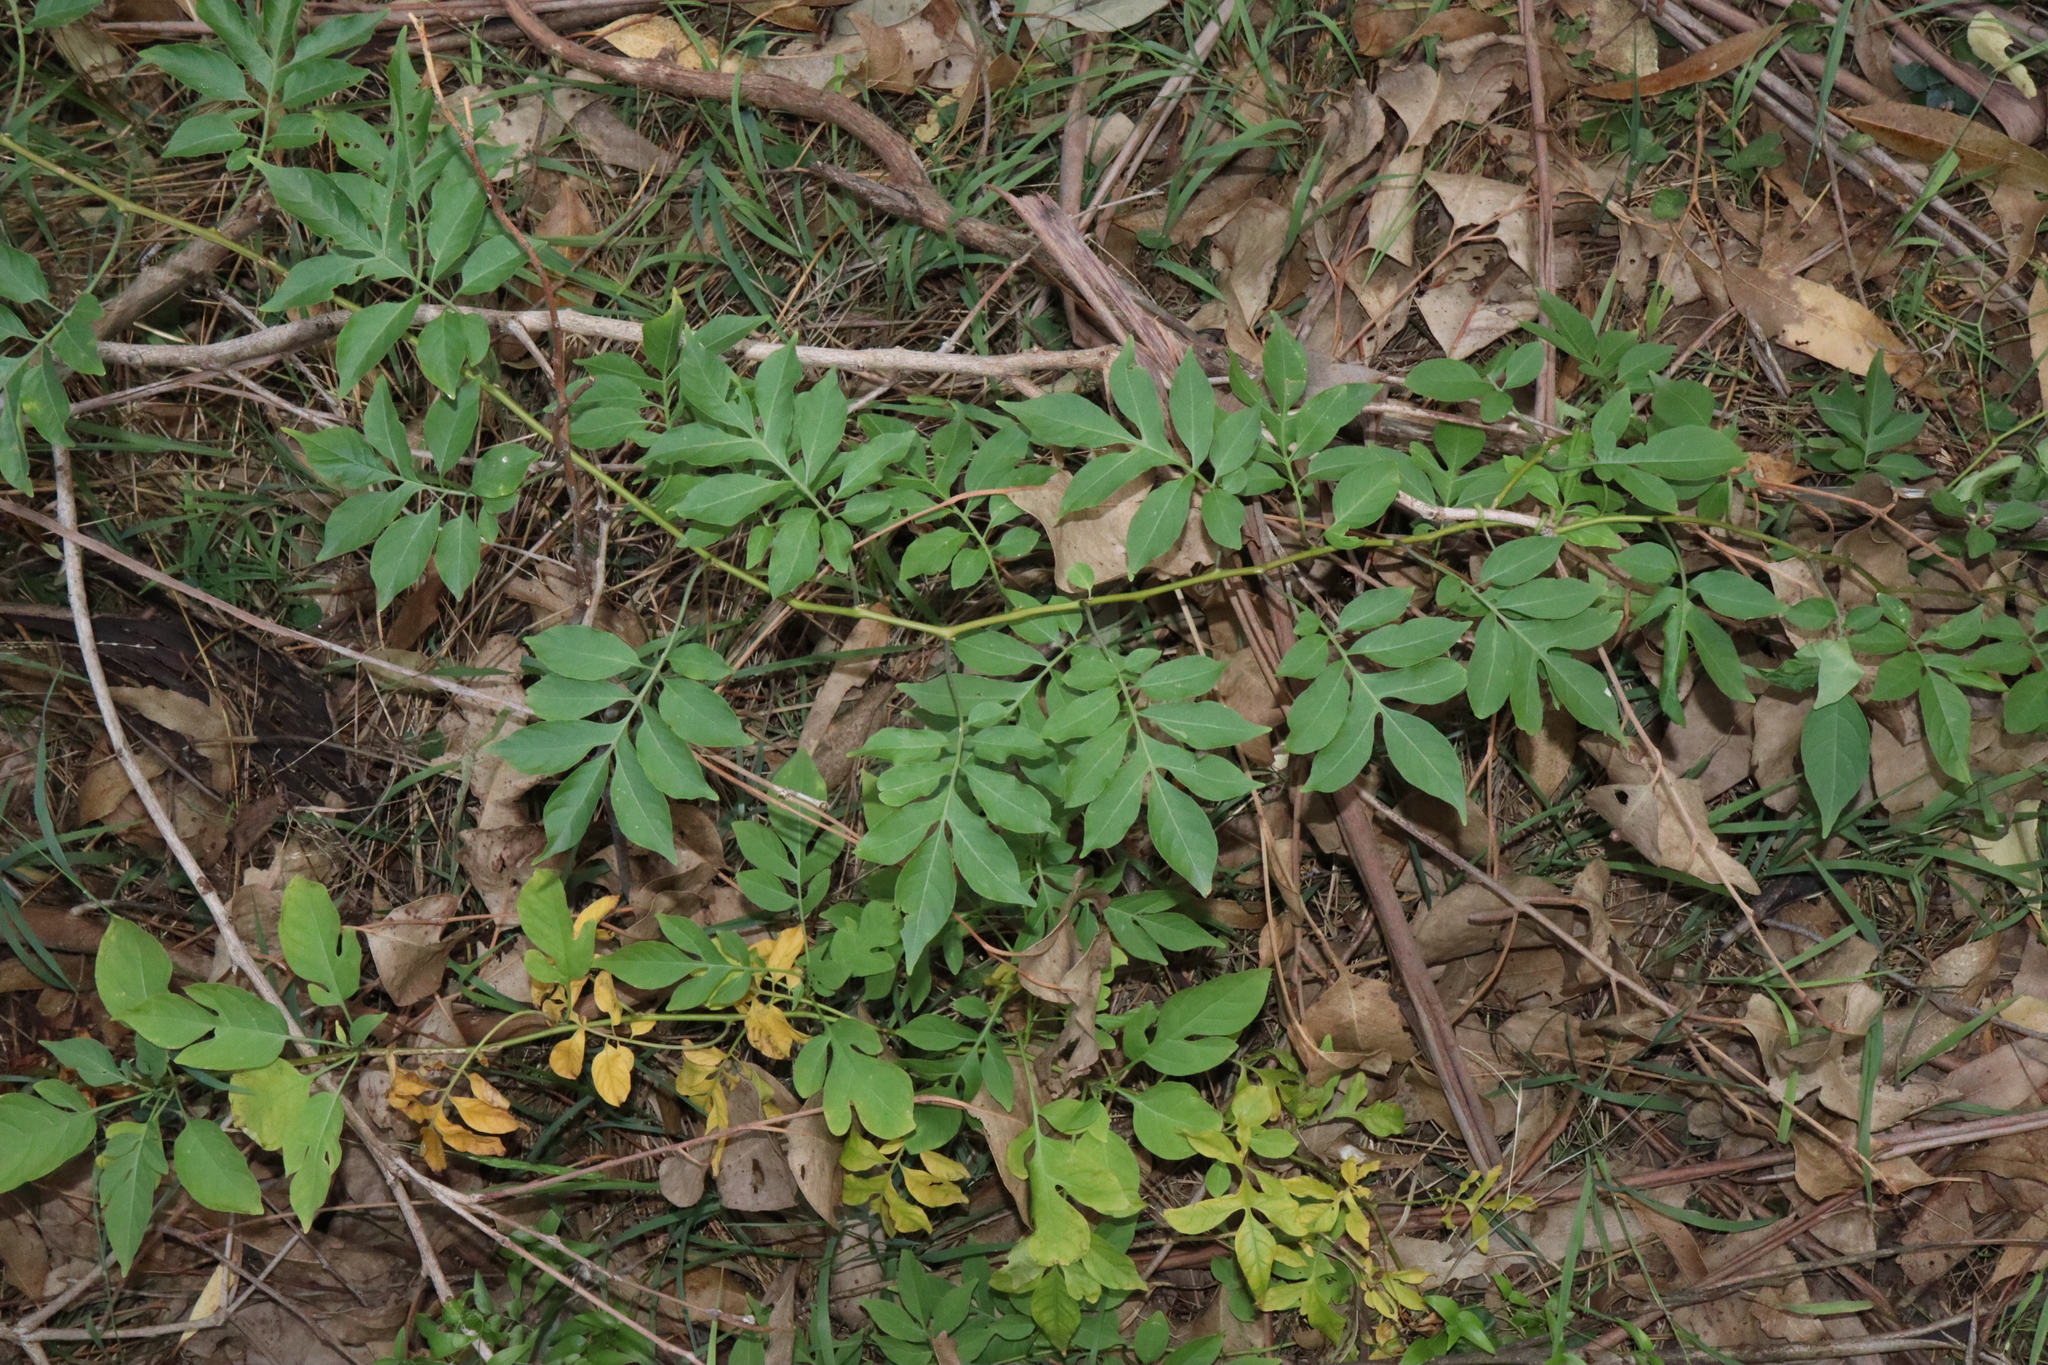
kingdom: Plantae
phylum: Tracheophyta
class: Magnoliopsida
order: Solanales
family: Solanaceae
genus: Solanum
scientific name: Solanum seaforthianum
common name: Brazilian nightshade
